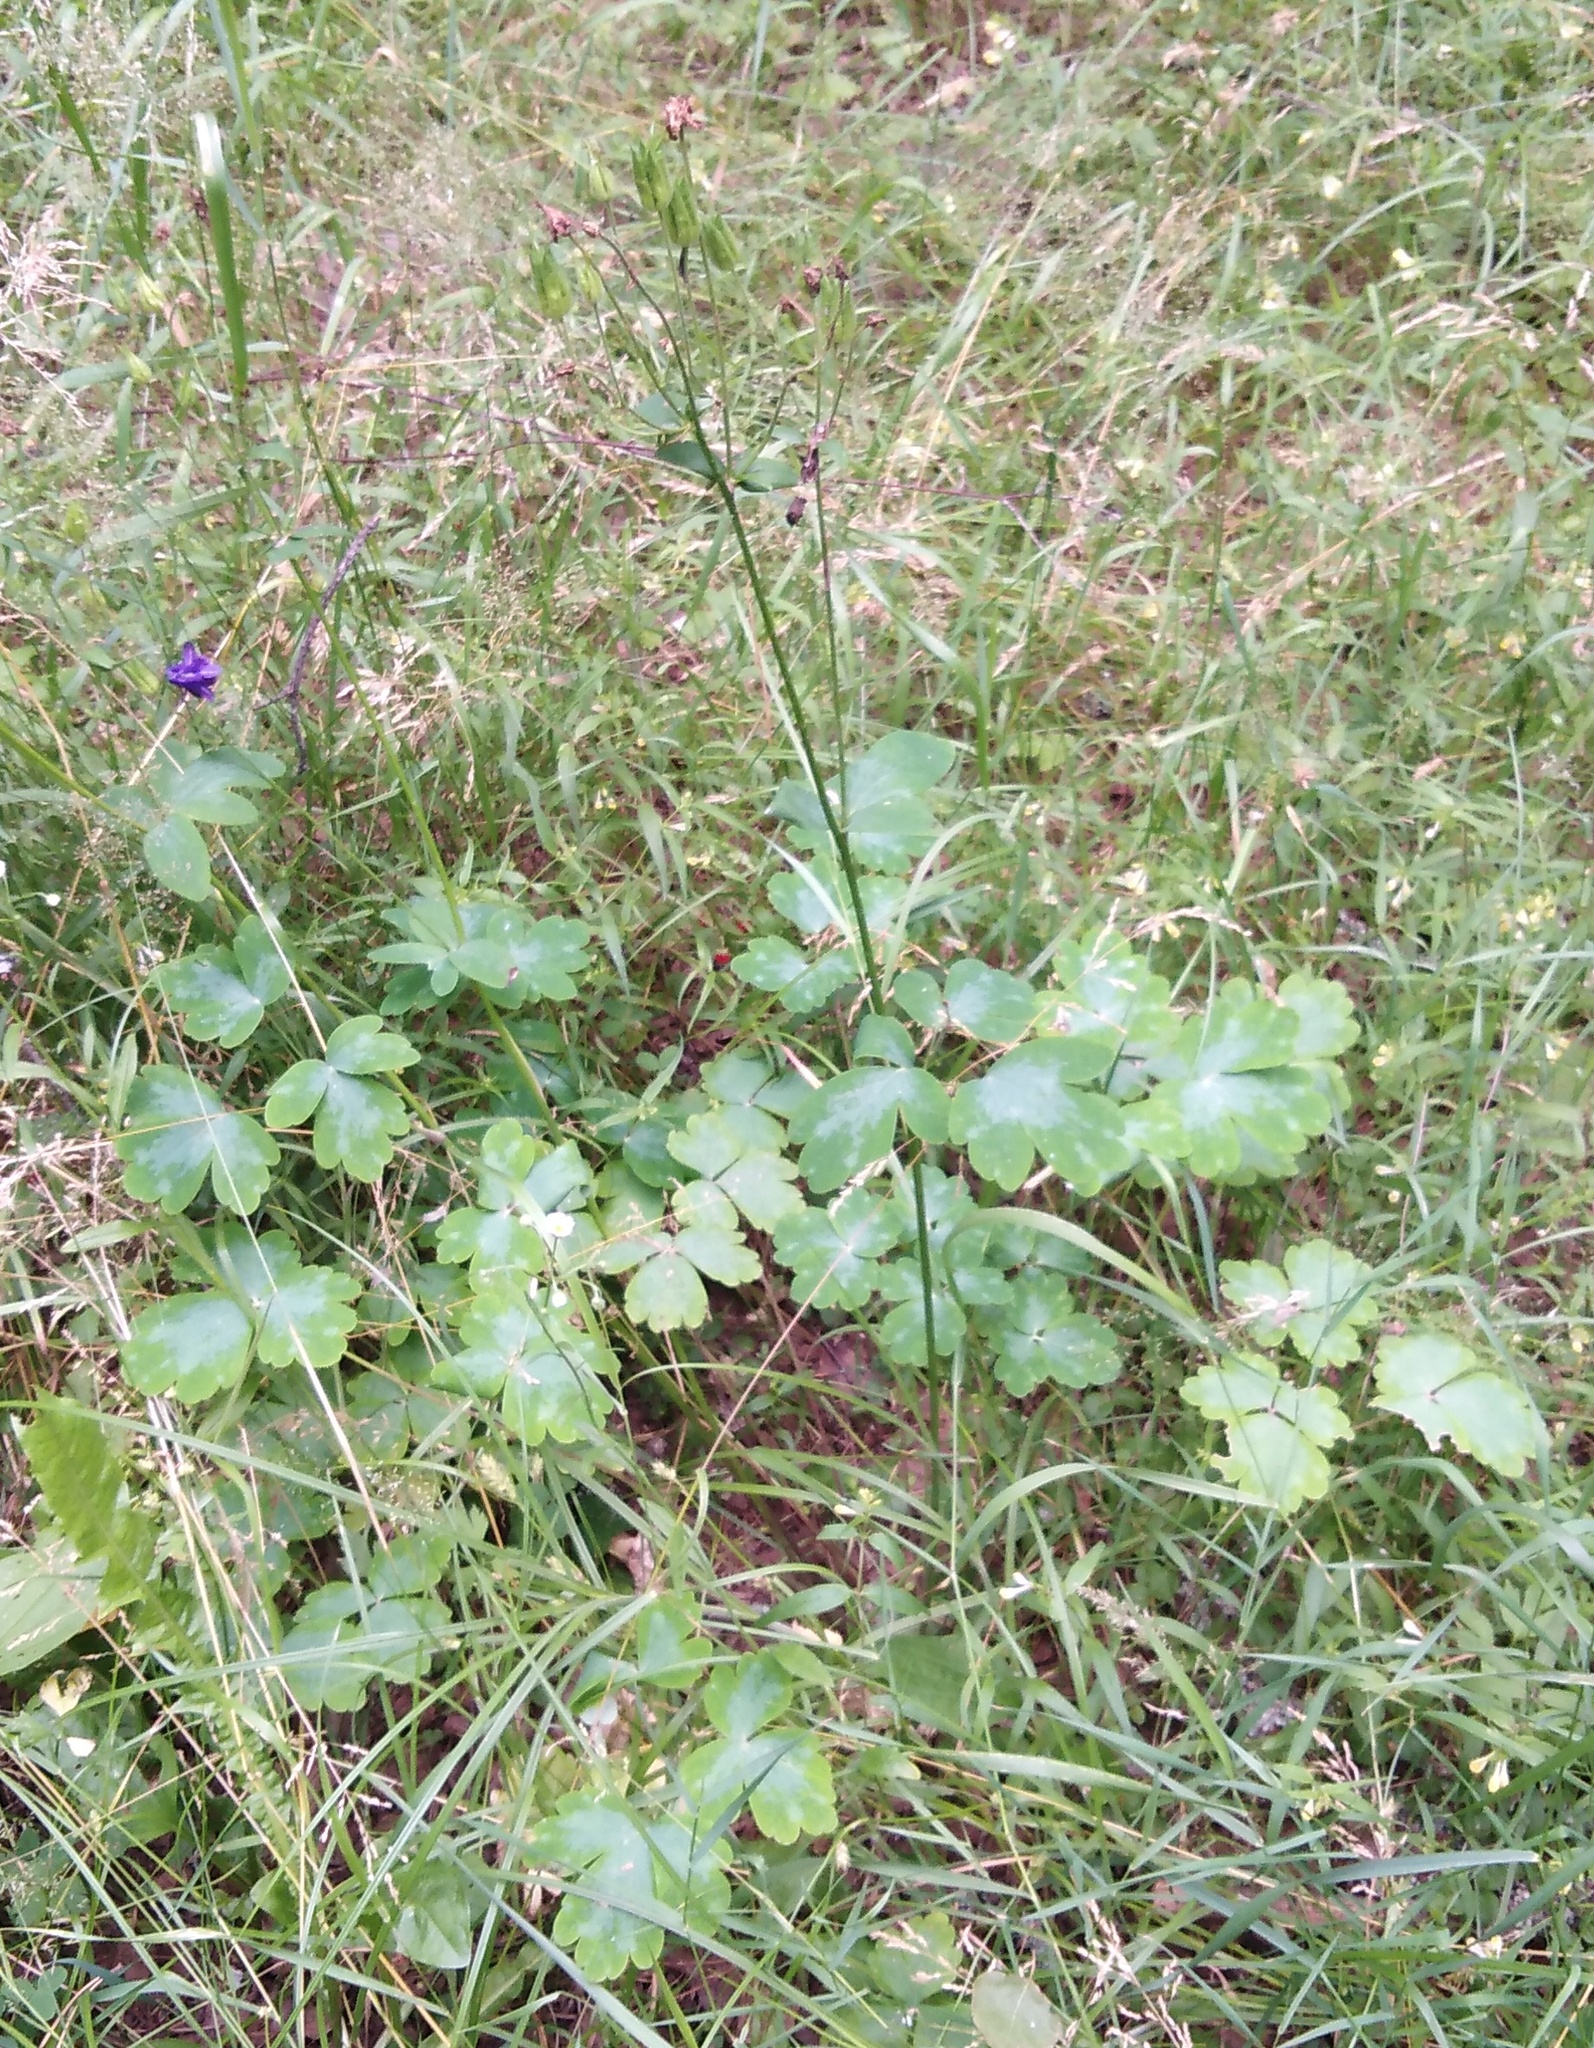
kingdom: Plantae
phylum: Tracheophyta
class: Magnoliopsida
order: Ranunculales
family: Ranunculaceae
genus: Aquilegia
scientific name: Aquilegia vulgaris
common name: Columbine
